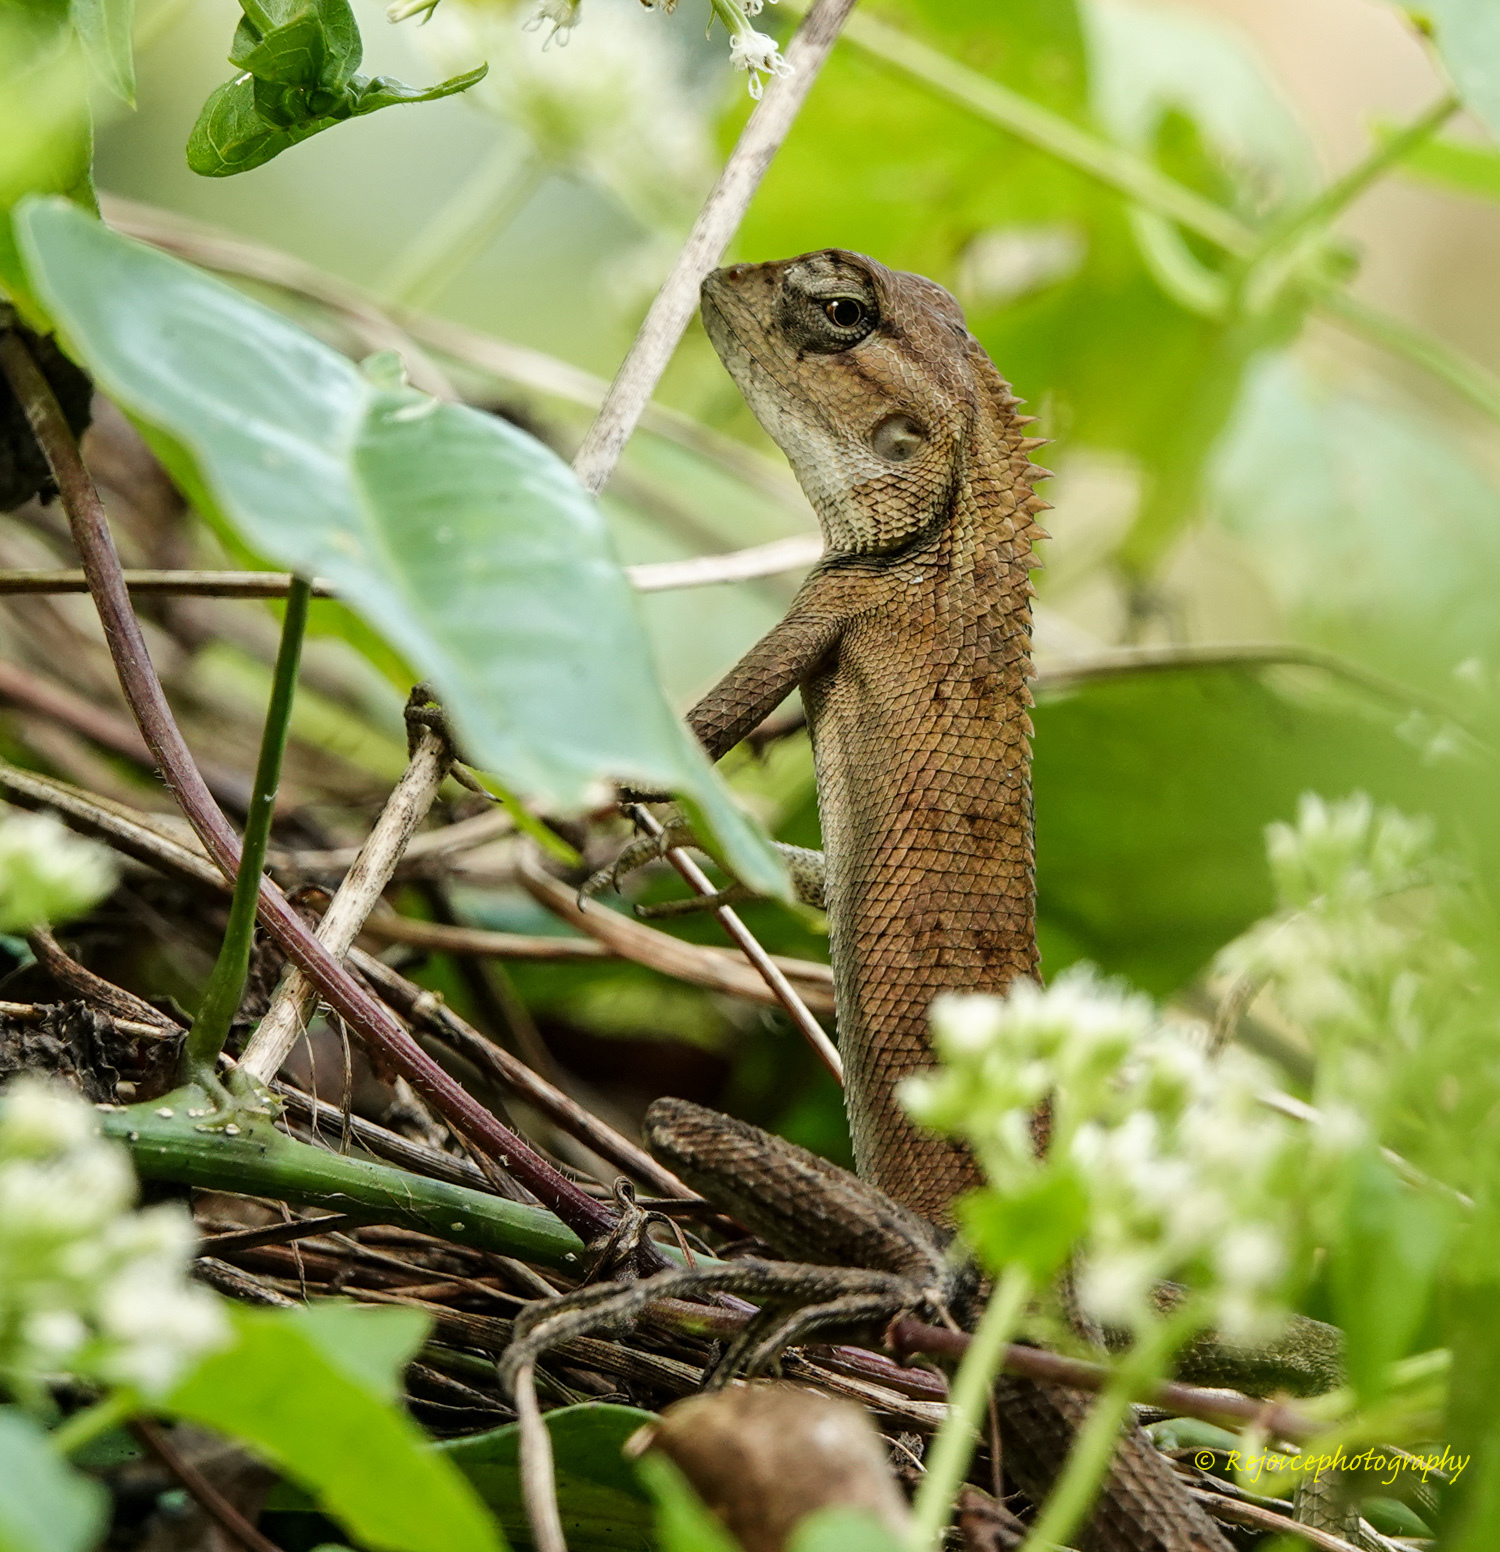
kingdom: Animalia
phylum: Chordata
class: Squamata
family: Agamidae
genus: Calotes
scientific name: Calotes versicolor
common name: Oriental garden lizard
